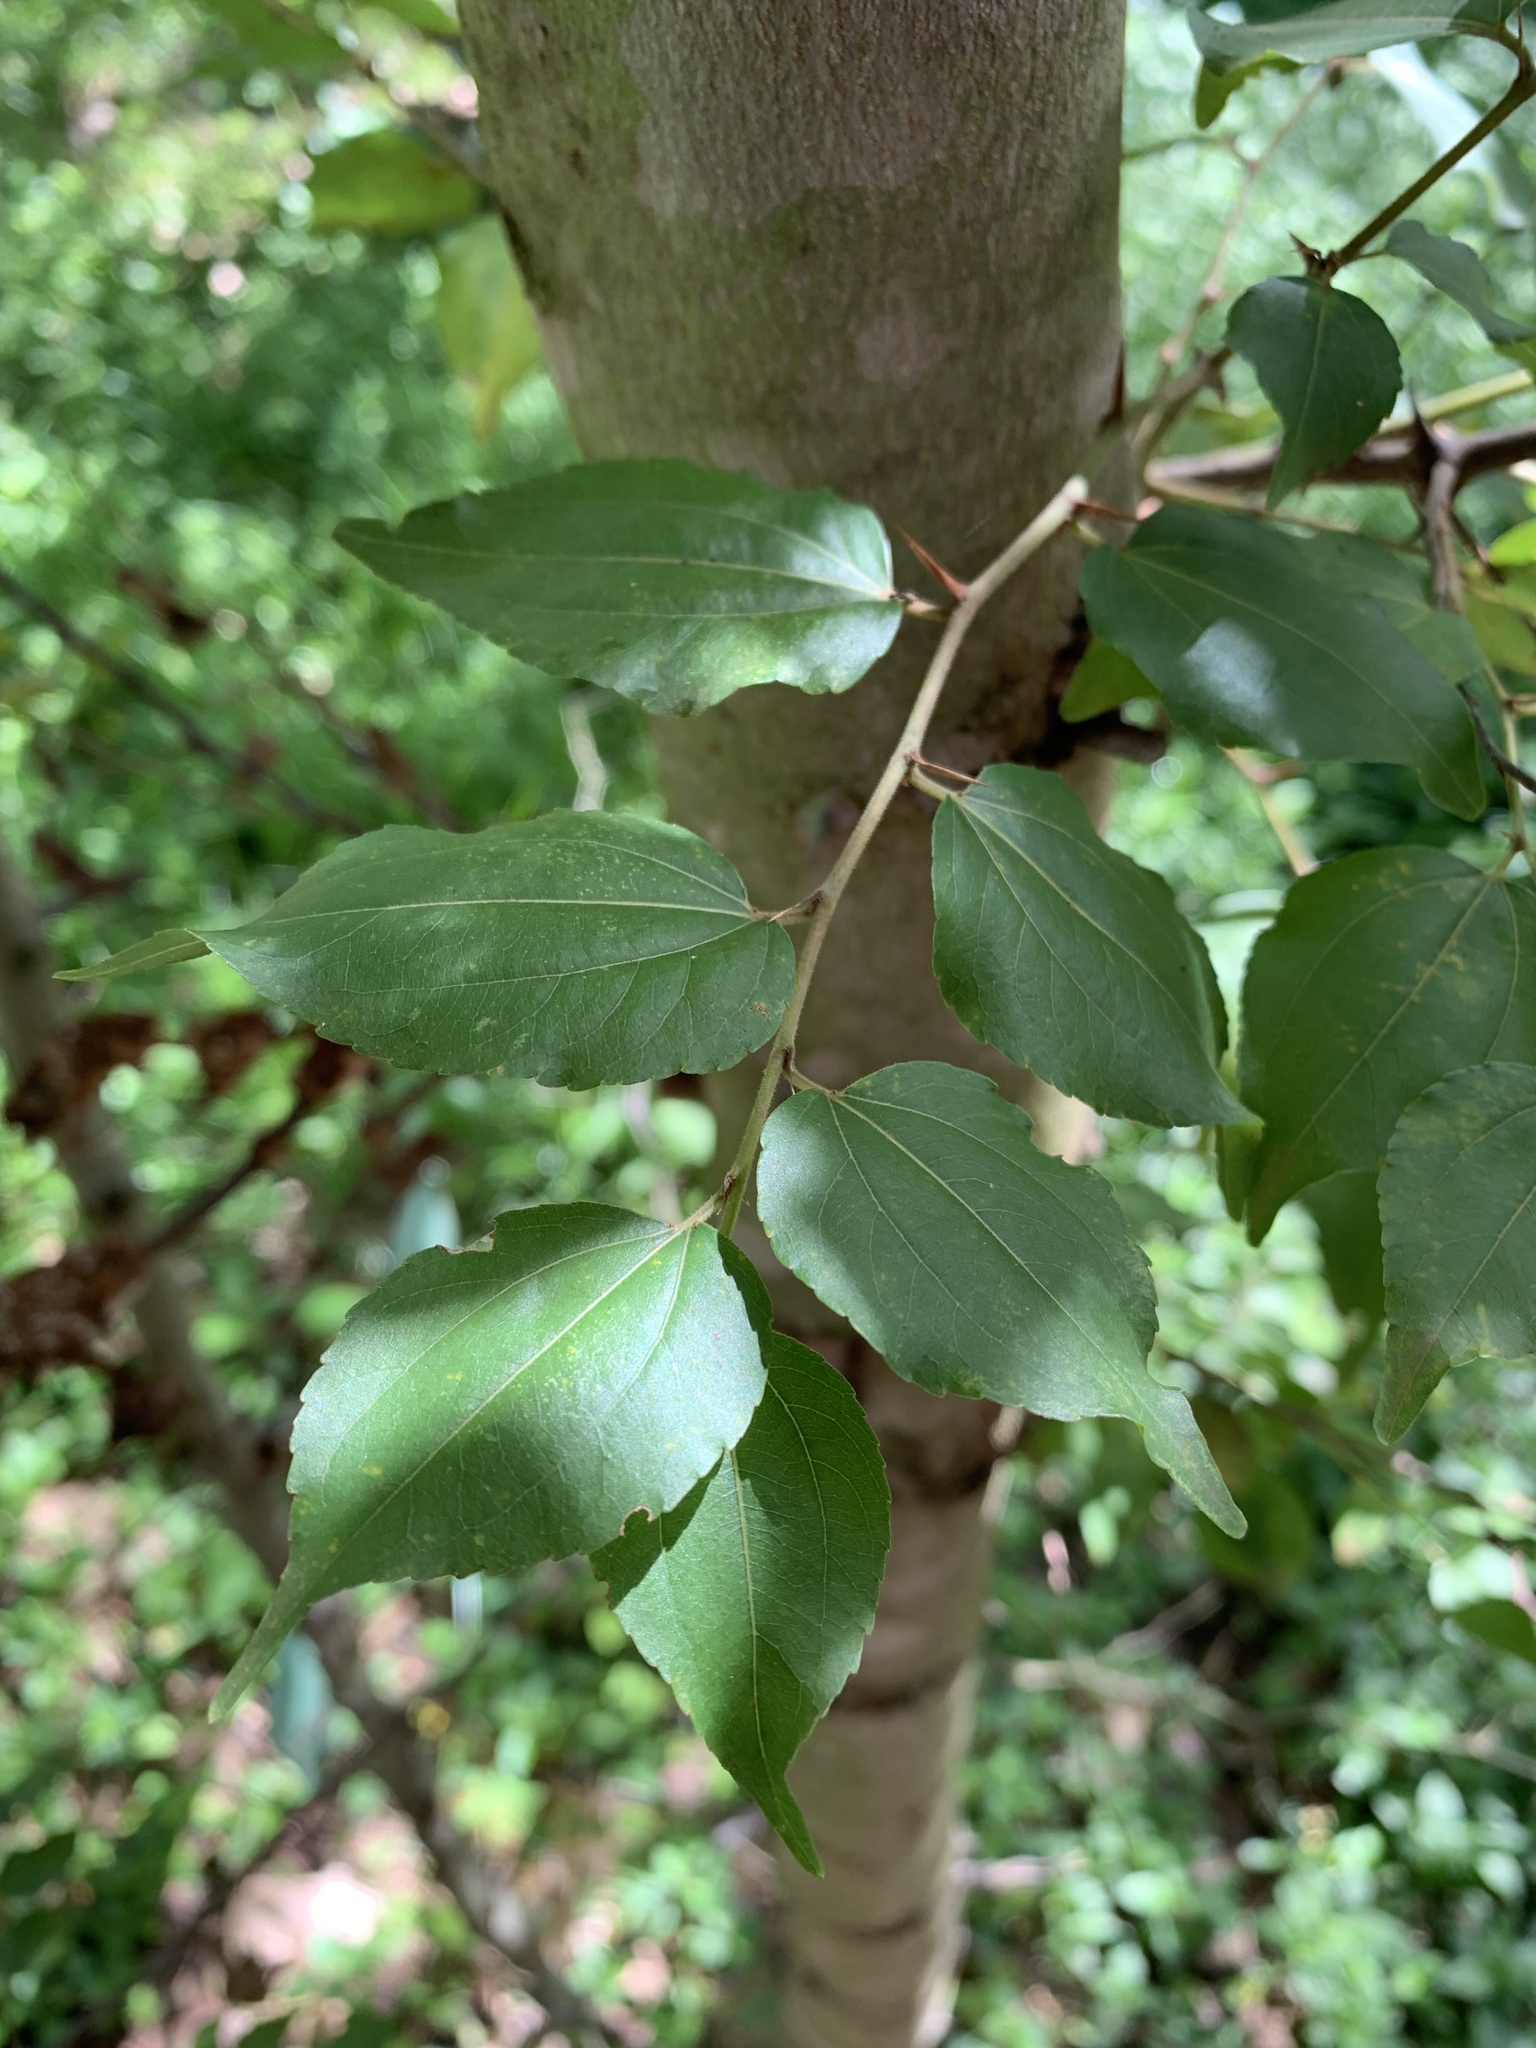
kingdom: Plantae
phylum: Tracheophyta
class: Magnoliopsida
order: Rosales
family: Rhamnaceae
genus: Ziziphus
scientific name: Ziziphus mucronata
